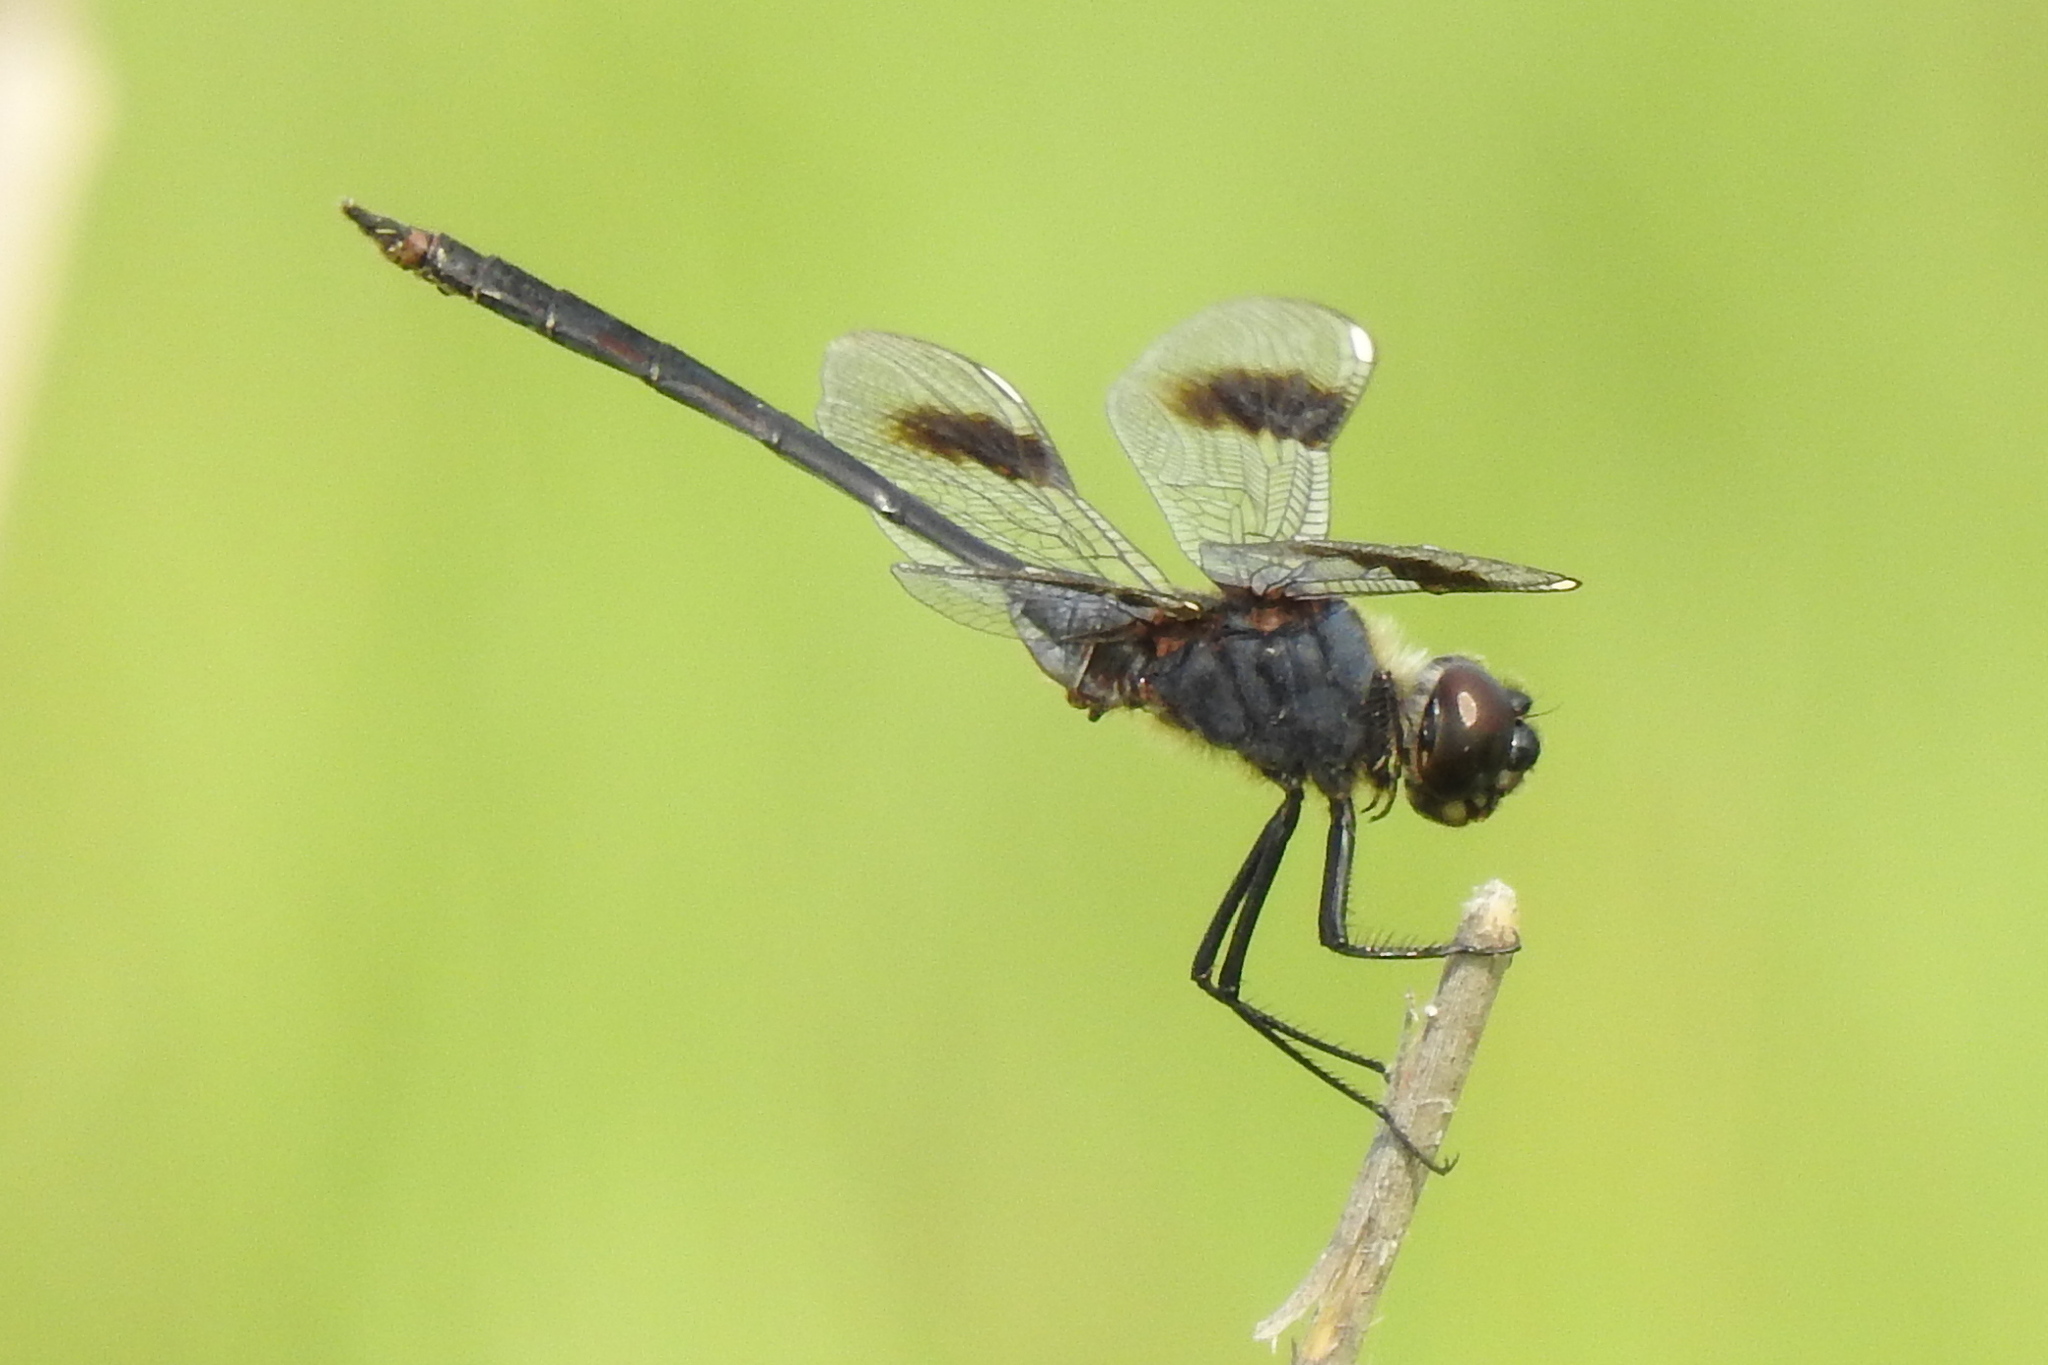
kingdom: Animalia
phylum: Arthropoda
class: Insecta
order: Odonata
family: Libellulidae
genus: Brachymesia
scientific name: Brachymesia gravida
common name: Four-spotted pennant
